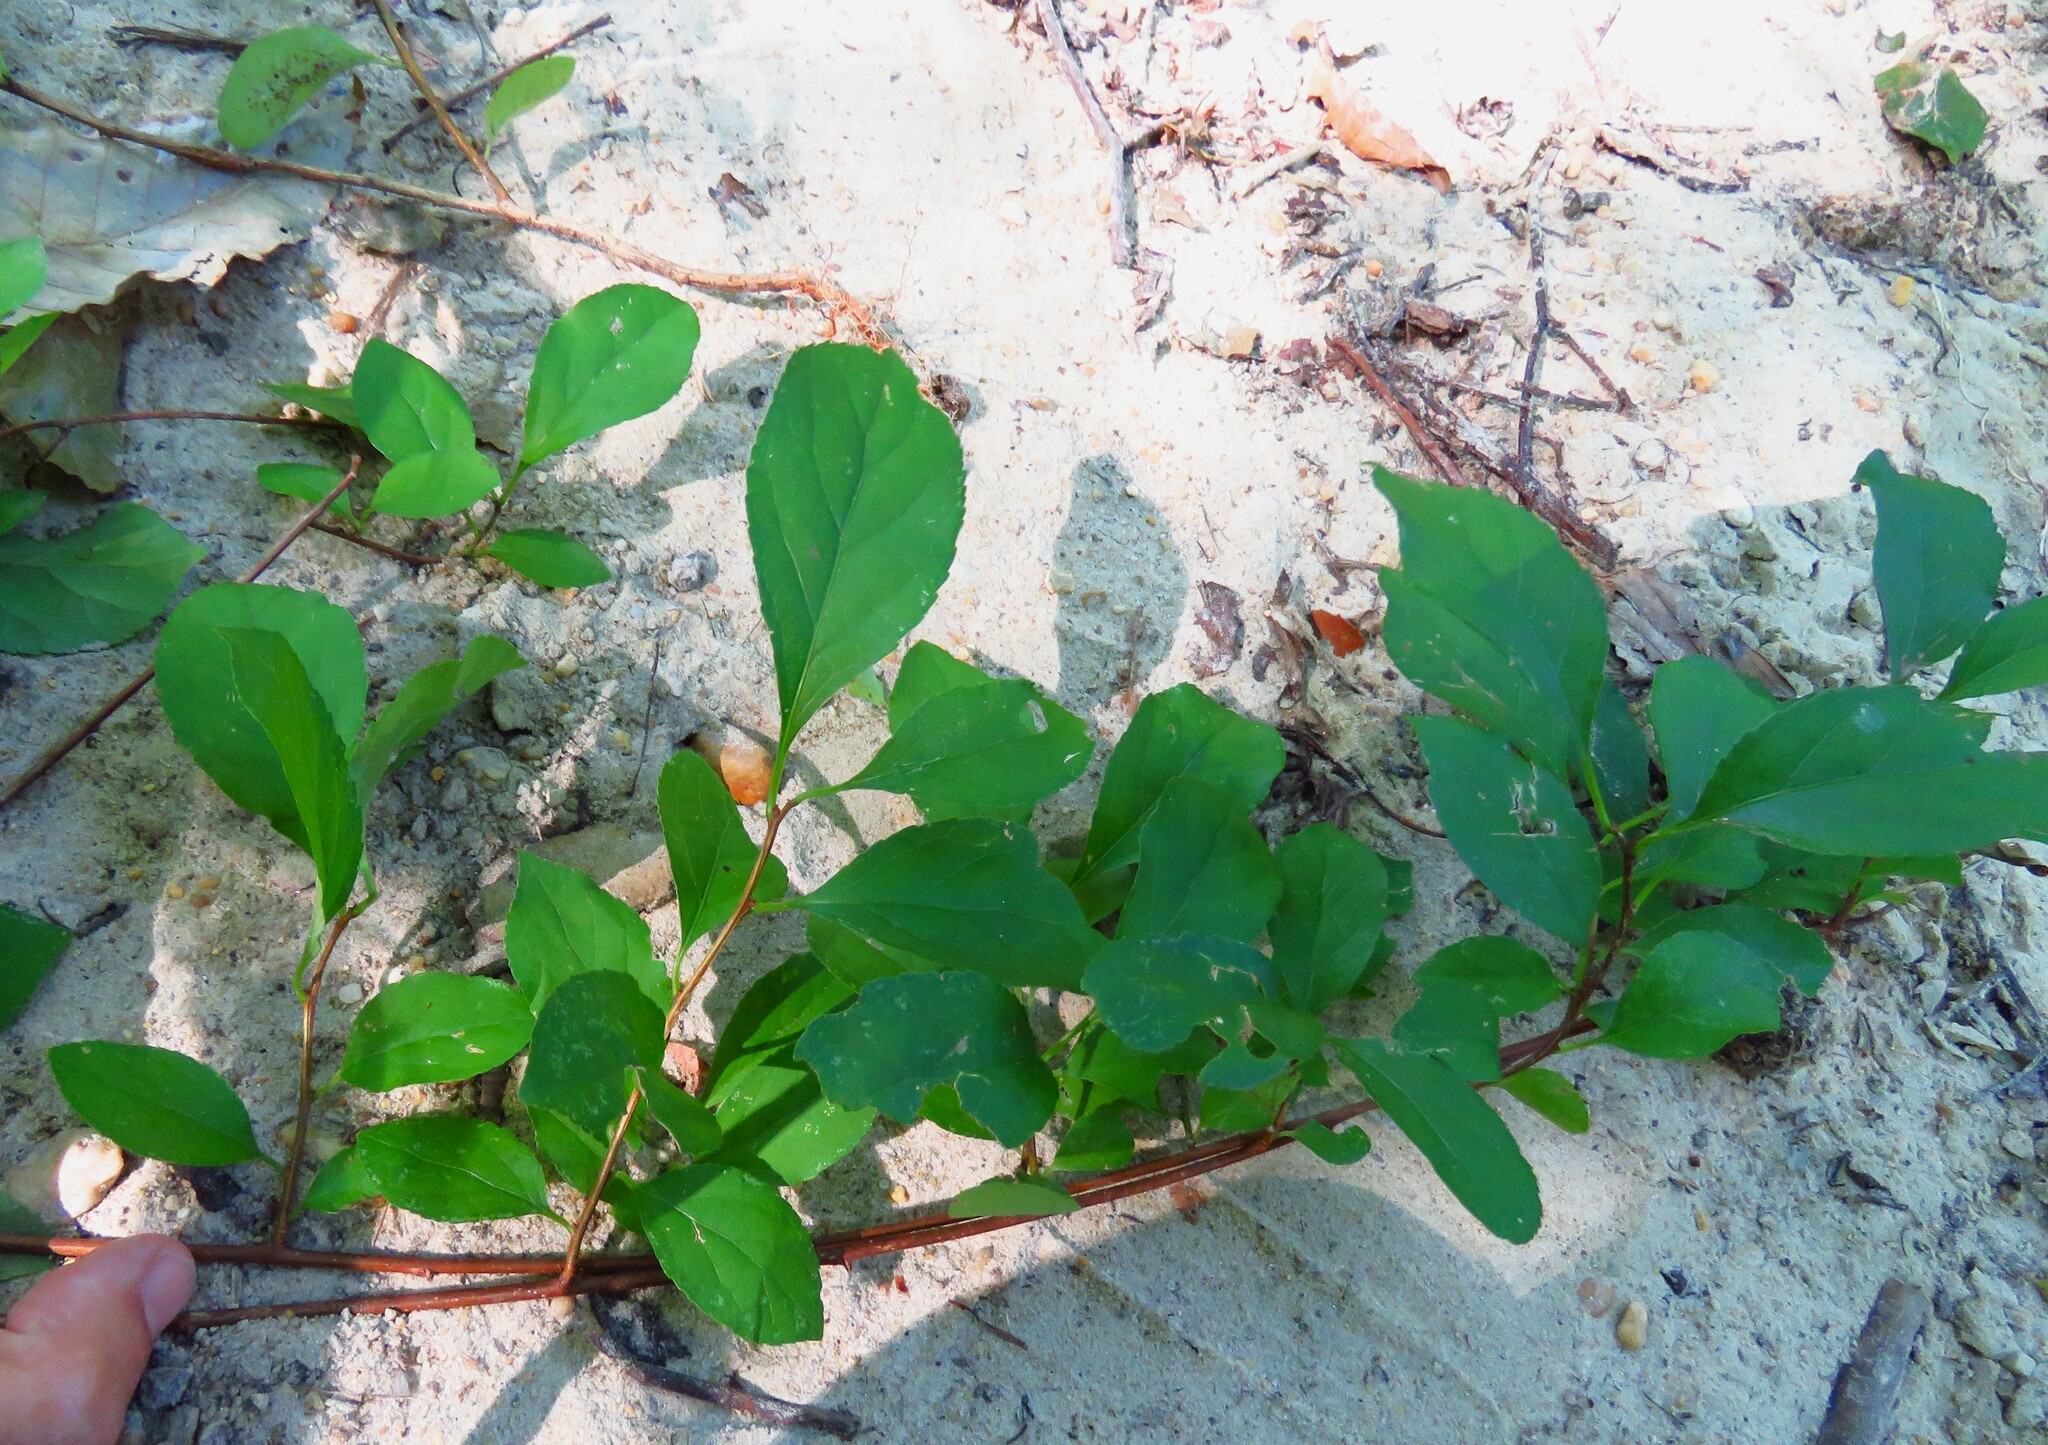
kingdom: Plantae
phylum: Tracheophyta
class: Magnoliopsida
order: Celastrales
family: Celastraceae
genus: Celastrus
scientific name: Celastrus orbiculatus
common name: Oriental bittersweet
